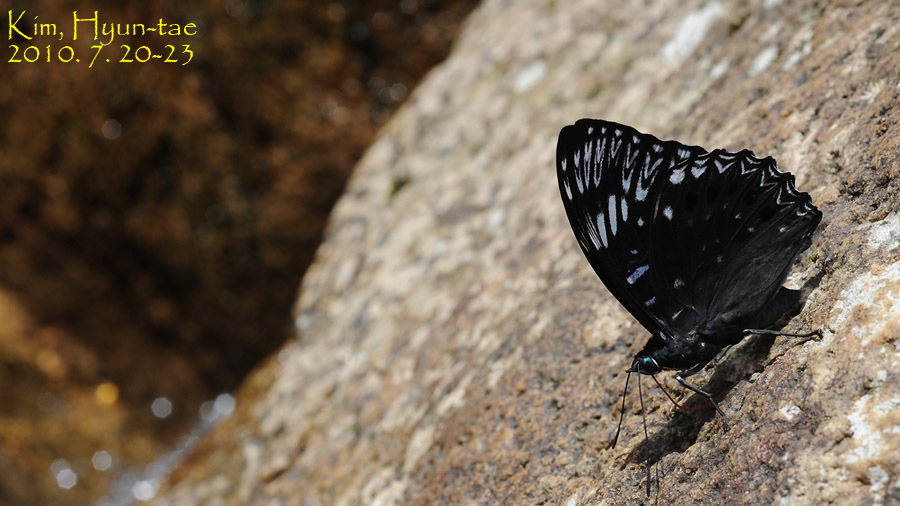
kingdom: Animalia
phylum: Arthropoda
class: Insecta
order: Lepidoptera
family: Nymphalidae
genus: Dichorragia
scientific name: Dichorragia nesimachus
